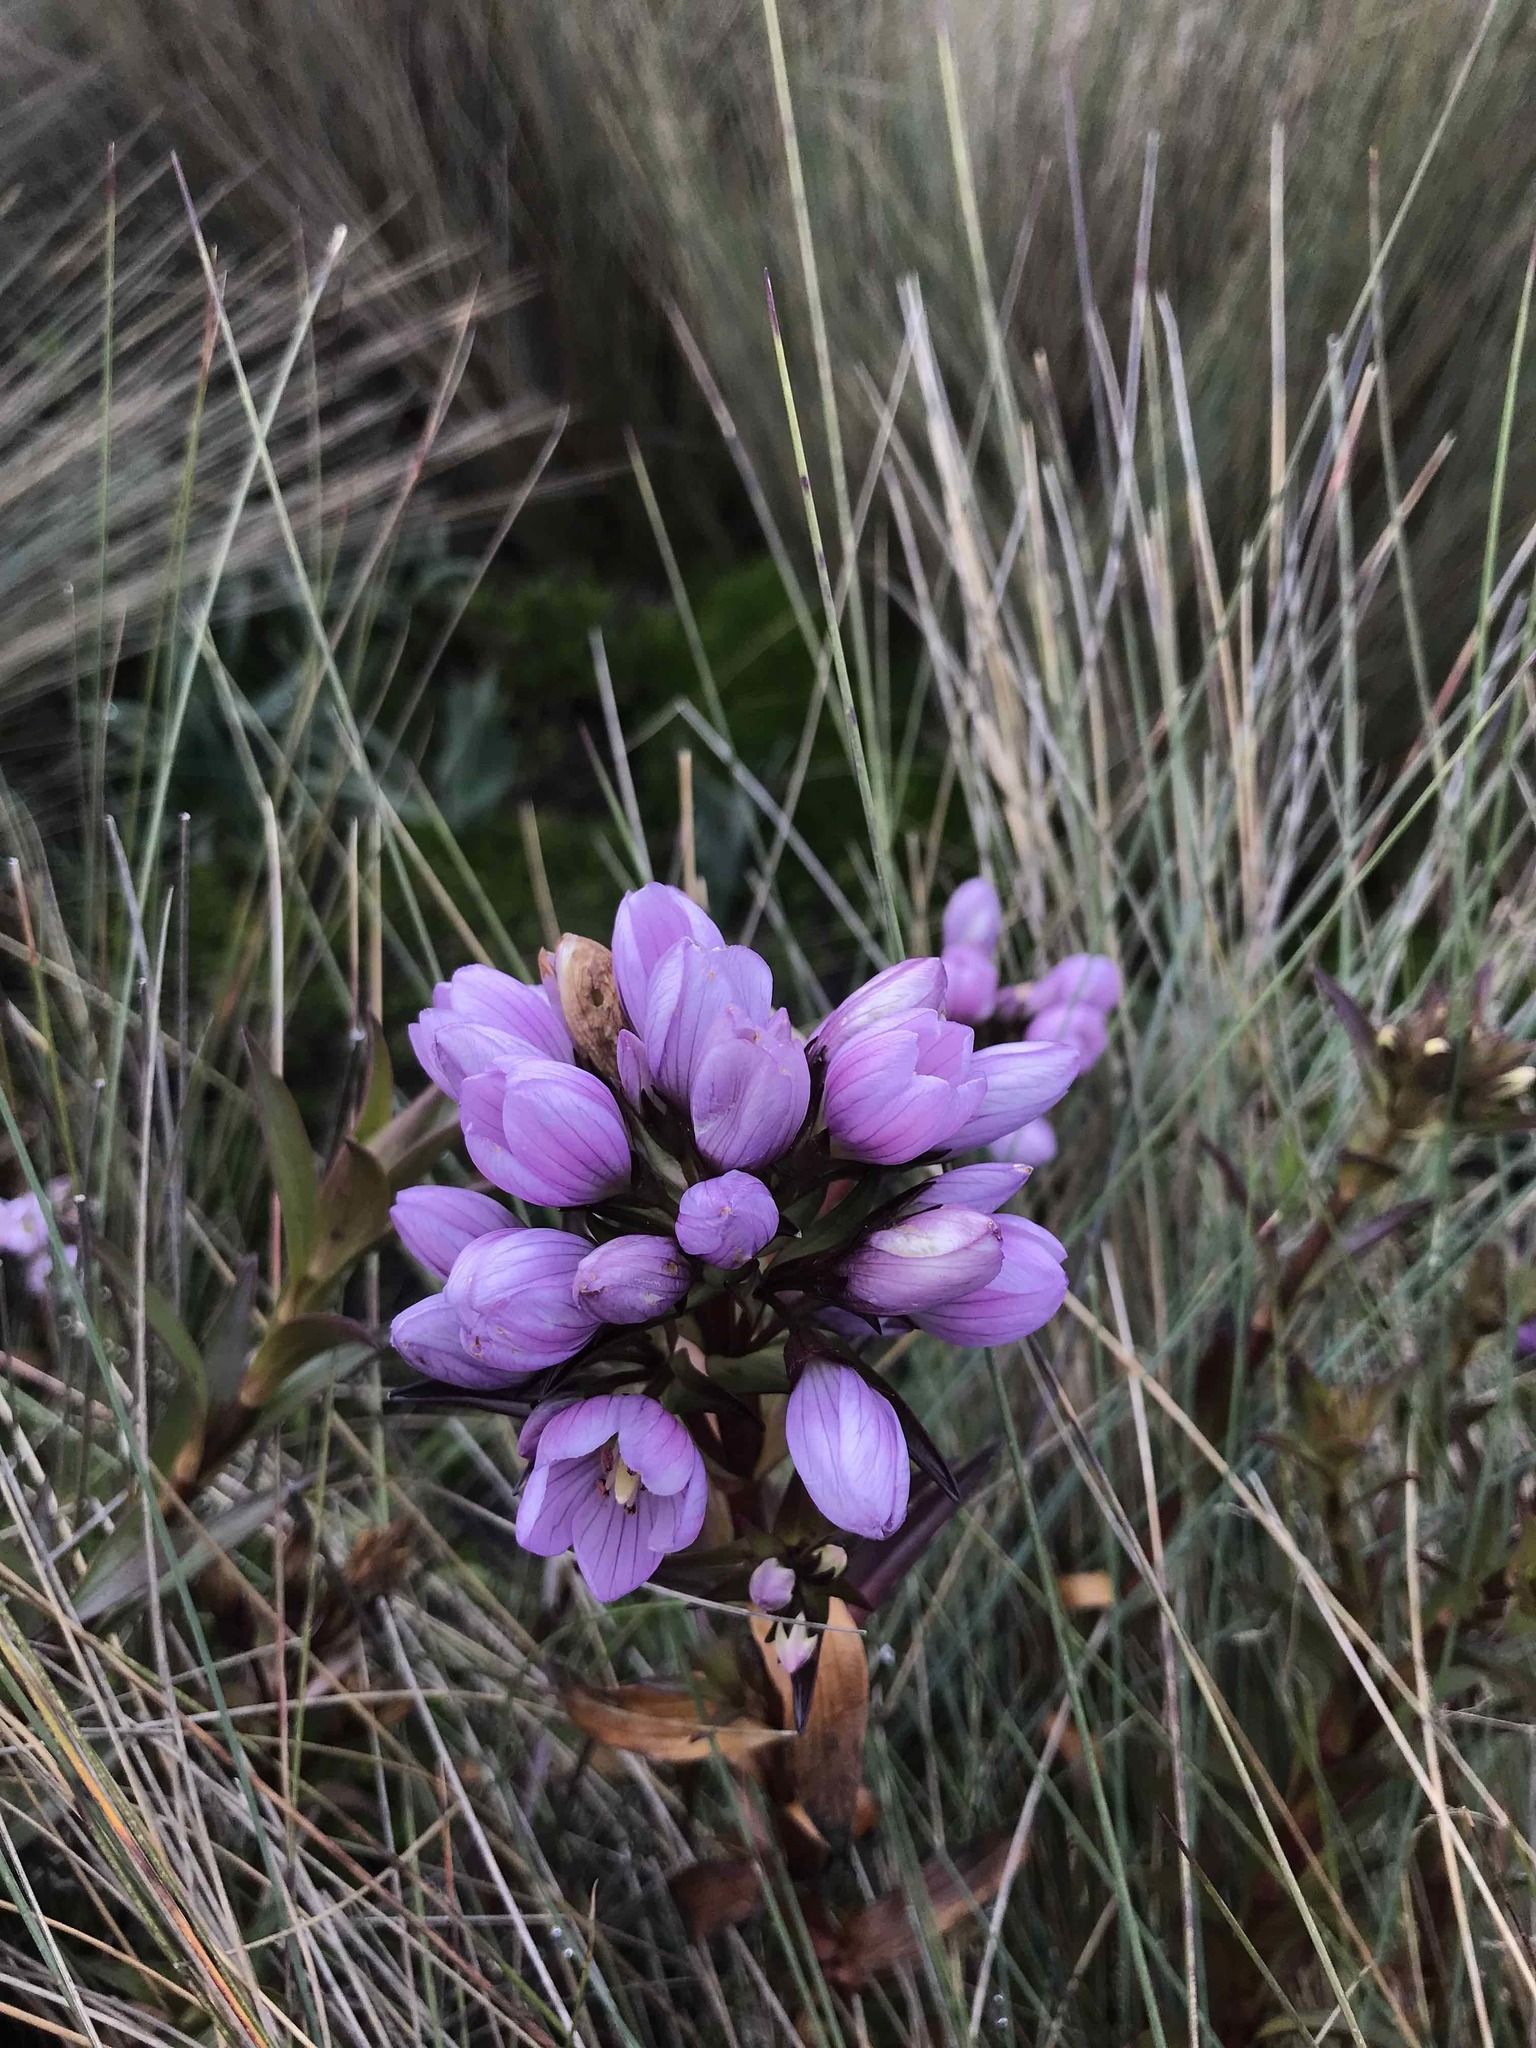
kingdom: Plantae
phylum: Tracheophyta
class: Magnoliopsida
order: Gentianales
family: Gentianaceae
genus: Gentianella
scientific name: Gentianella foliosa
